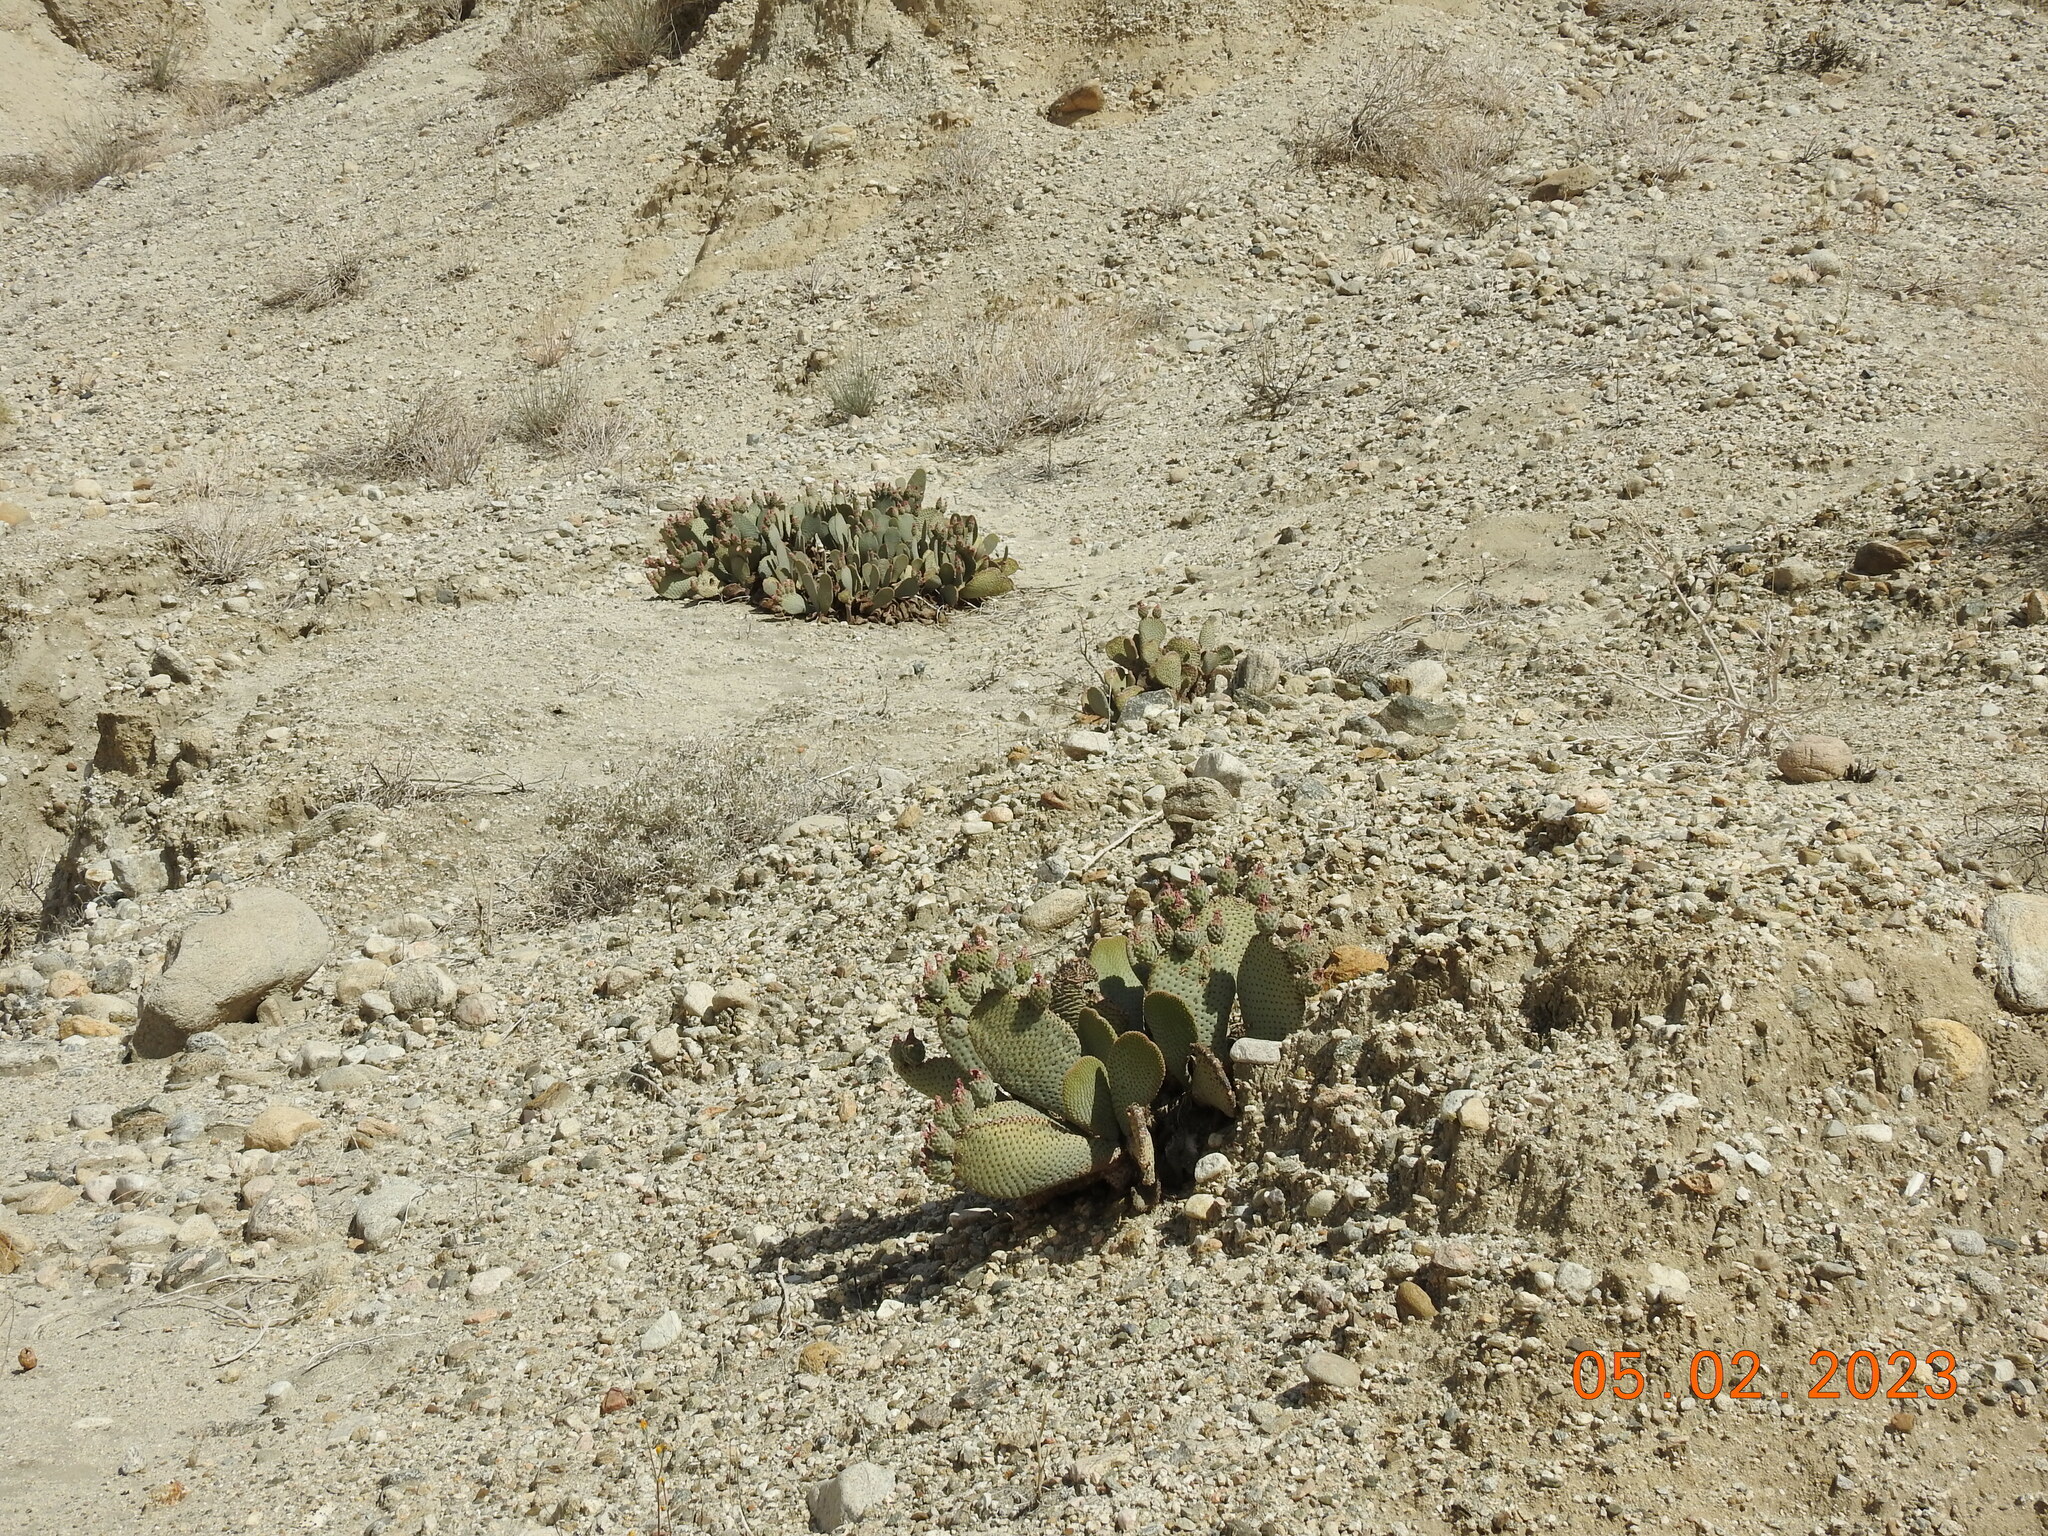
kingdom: Plantae
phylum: Tracheophyta
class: Magnoliopsida
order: Caryophyllales
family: Cactaceae
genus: Opuntia
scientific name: Opuntia basilaris
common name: Beavertail prickly-pear
